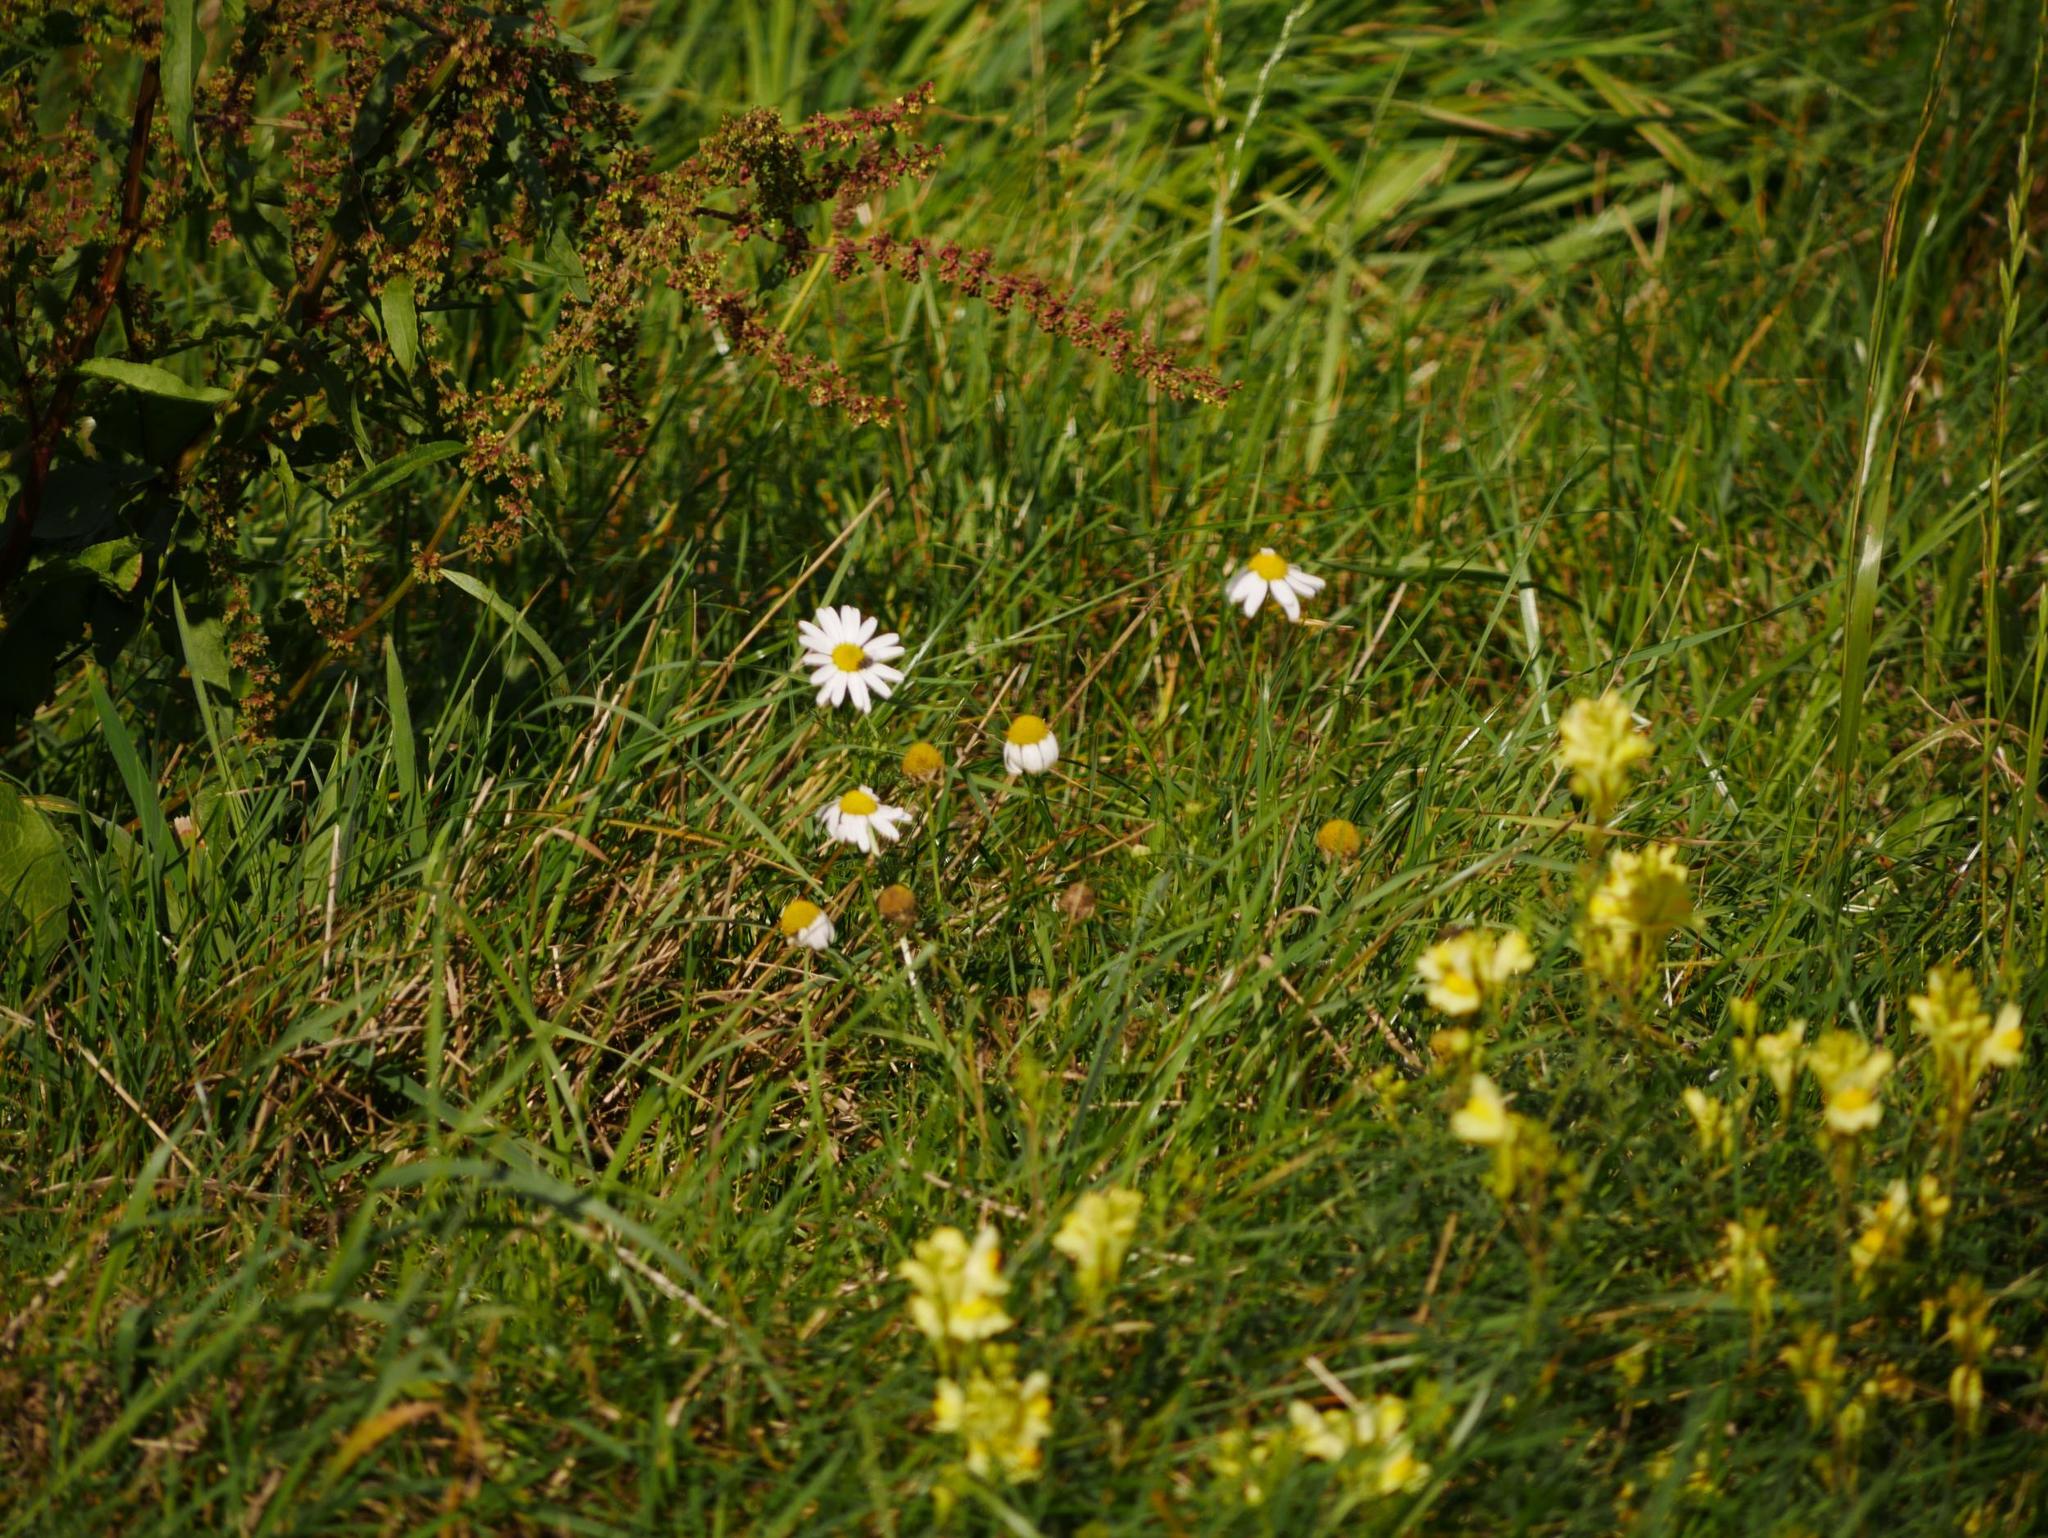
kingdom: Plantae
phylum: Tracheophyta
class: Magnoliopsida
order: Asterales
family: Asteraceae
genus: Tripleurospermum
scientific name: Tripleurospermum inodorum
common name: Scentless mayweed
